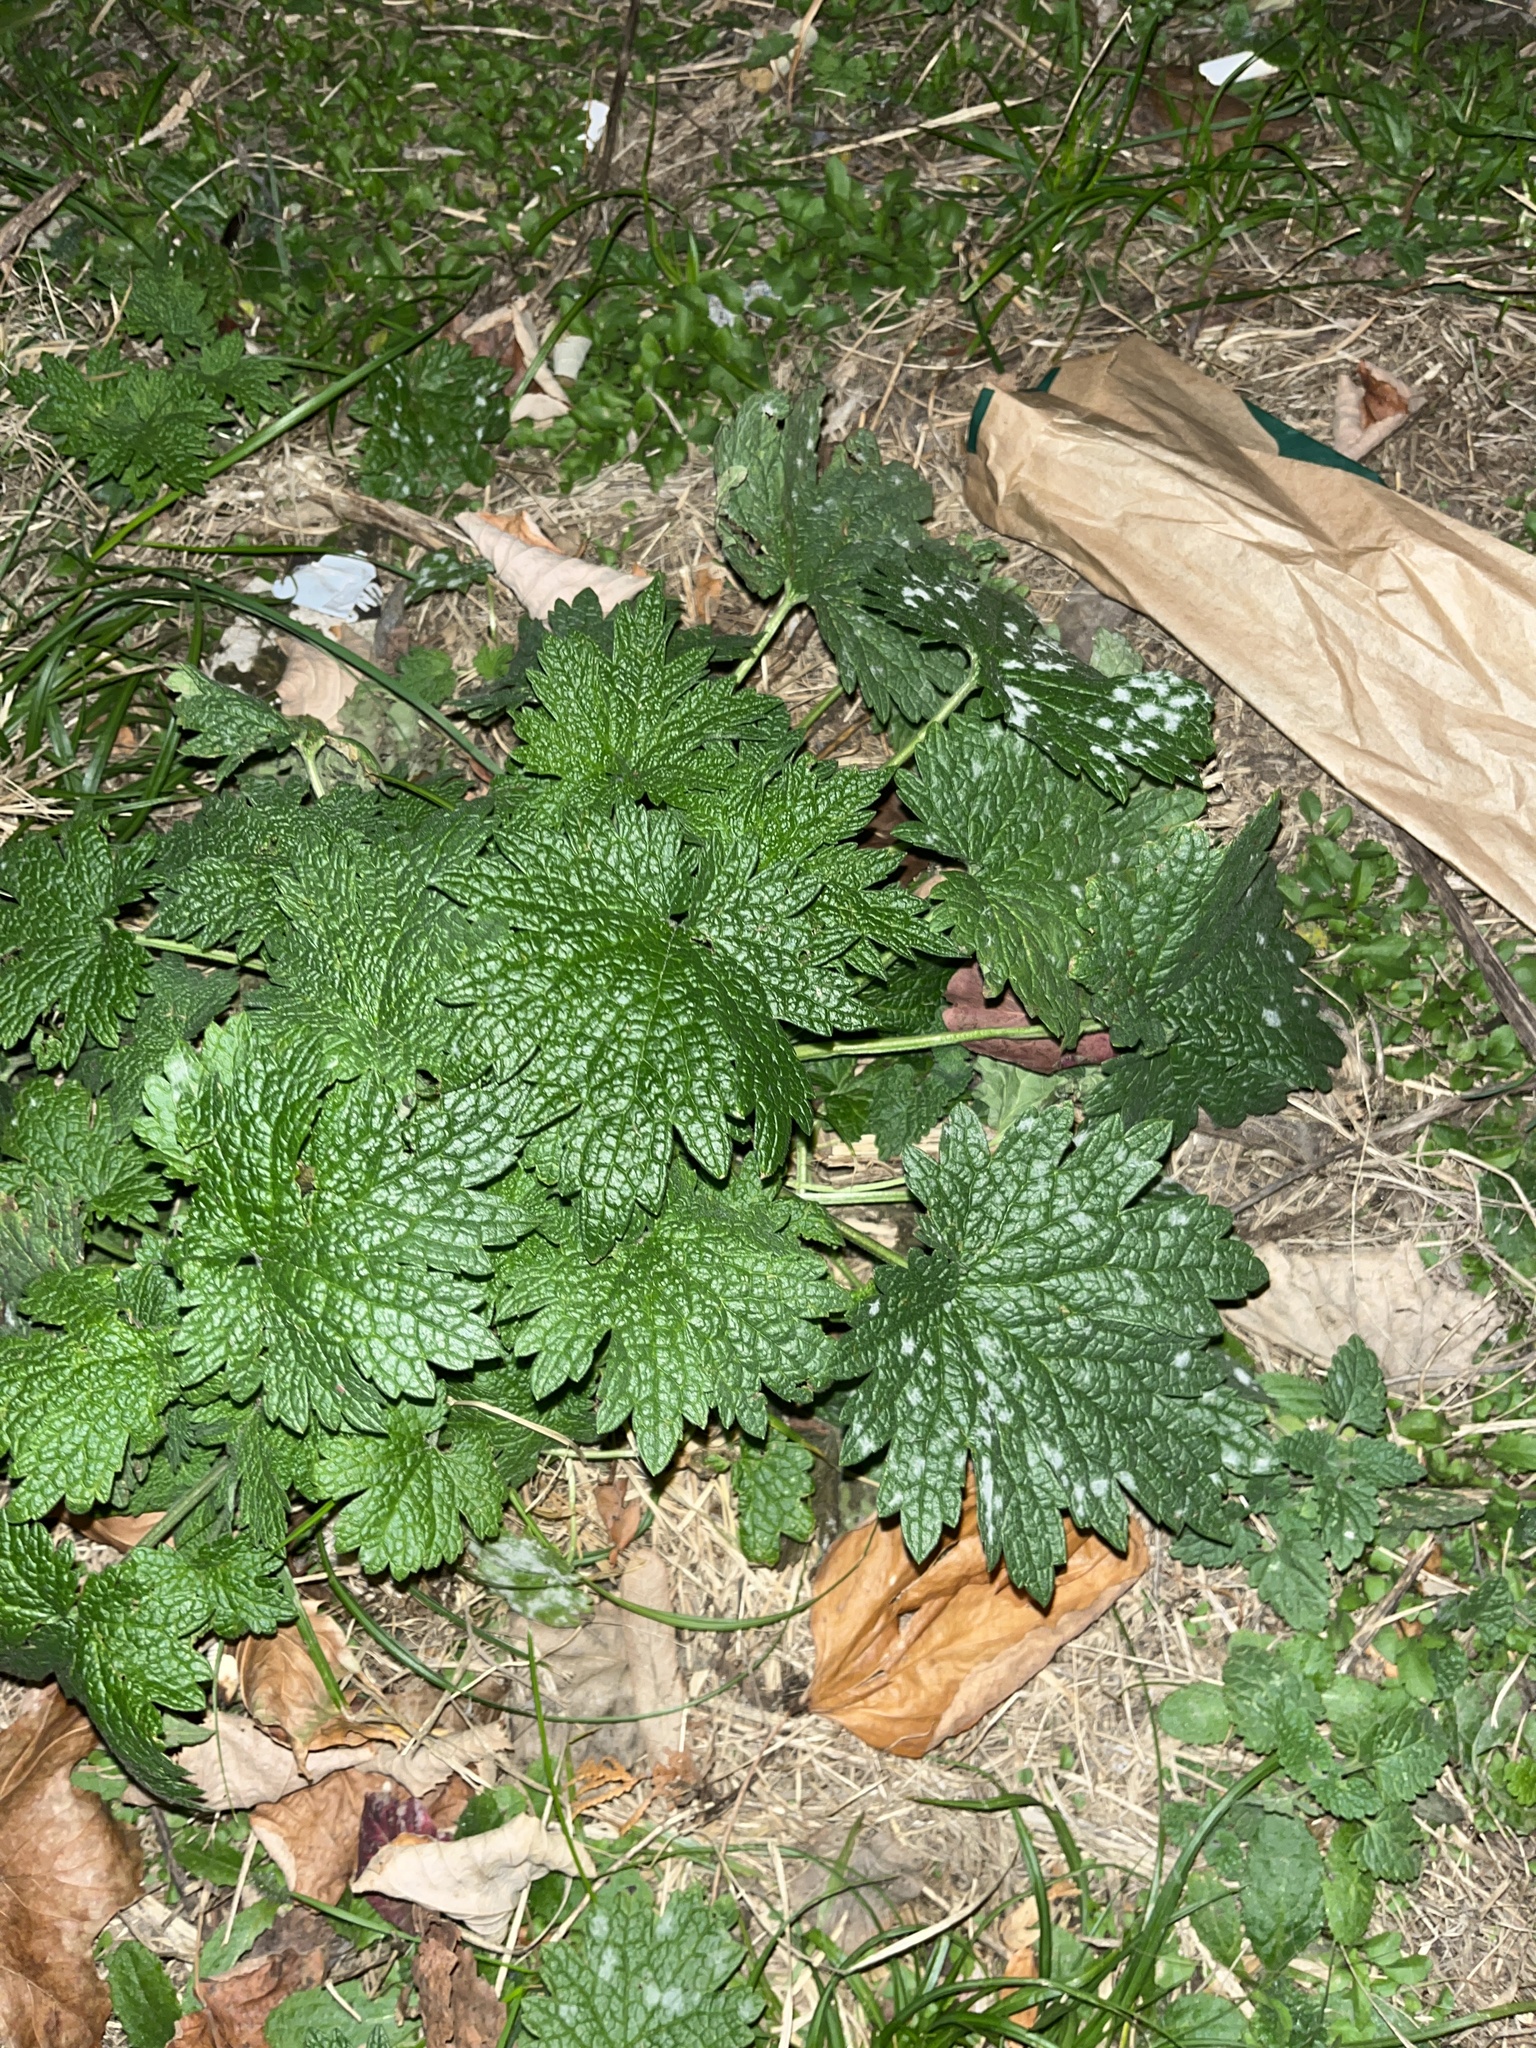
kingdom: Plantae
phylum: Tracheophyta
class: Magnoliopsida
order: Lamiales
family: Lamiaceae
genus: Leonurus
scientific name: Leonurus cardiaca
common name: Motherwort
